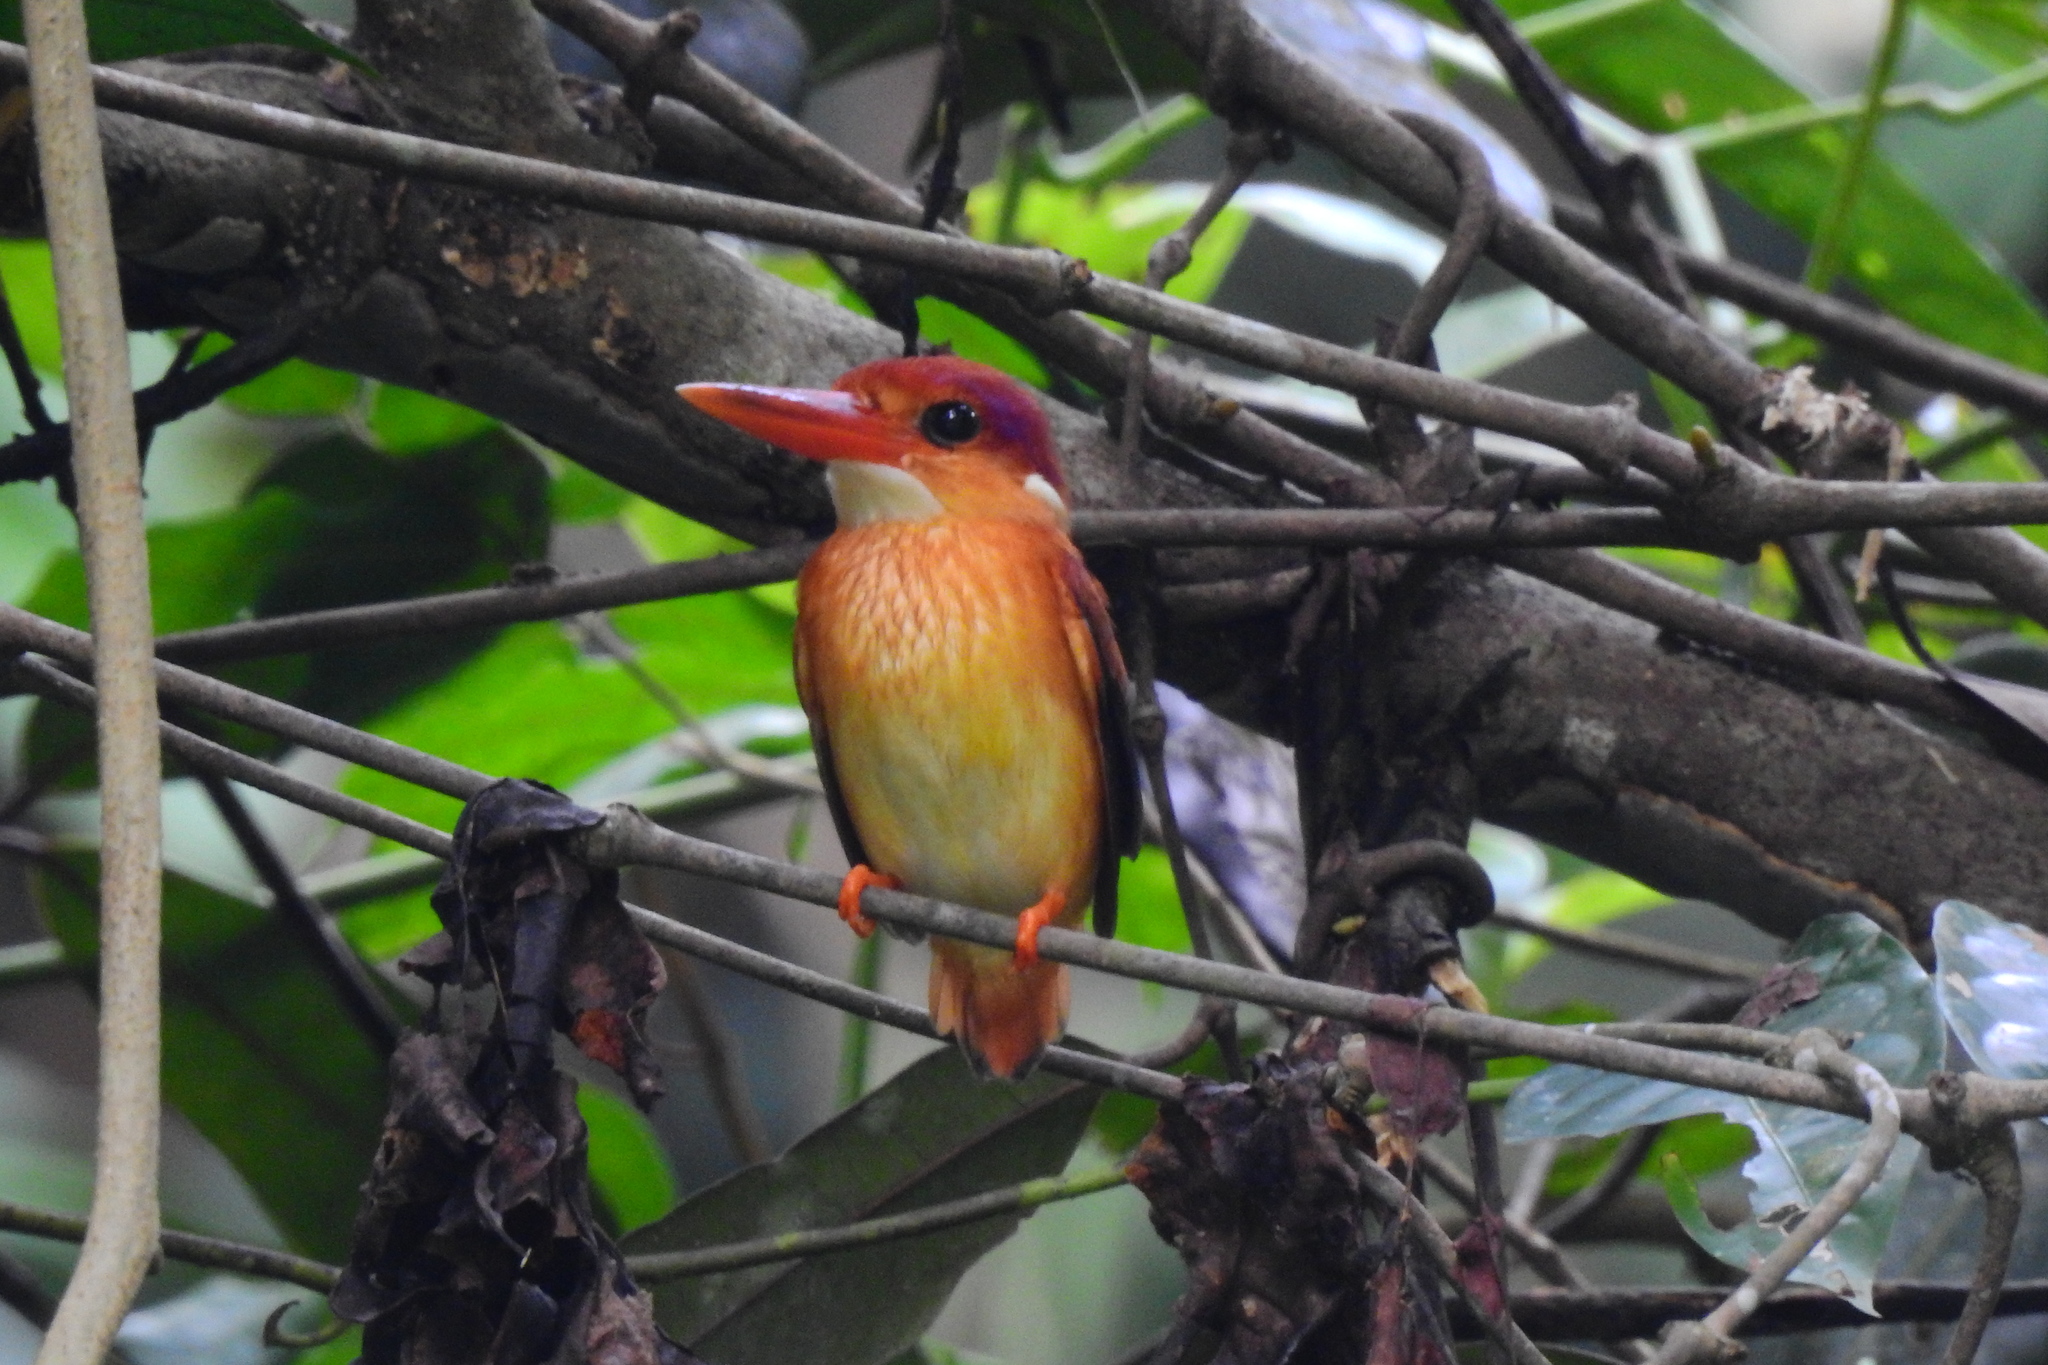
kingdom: Animalia
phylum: Chordata
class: Aves
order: Coraciiformes
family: Alcedinidae
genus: Ceyx
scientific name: Ceyx erithaca
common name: Oriental dwarf kingfisher
